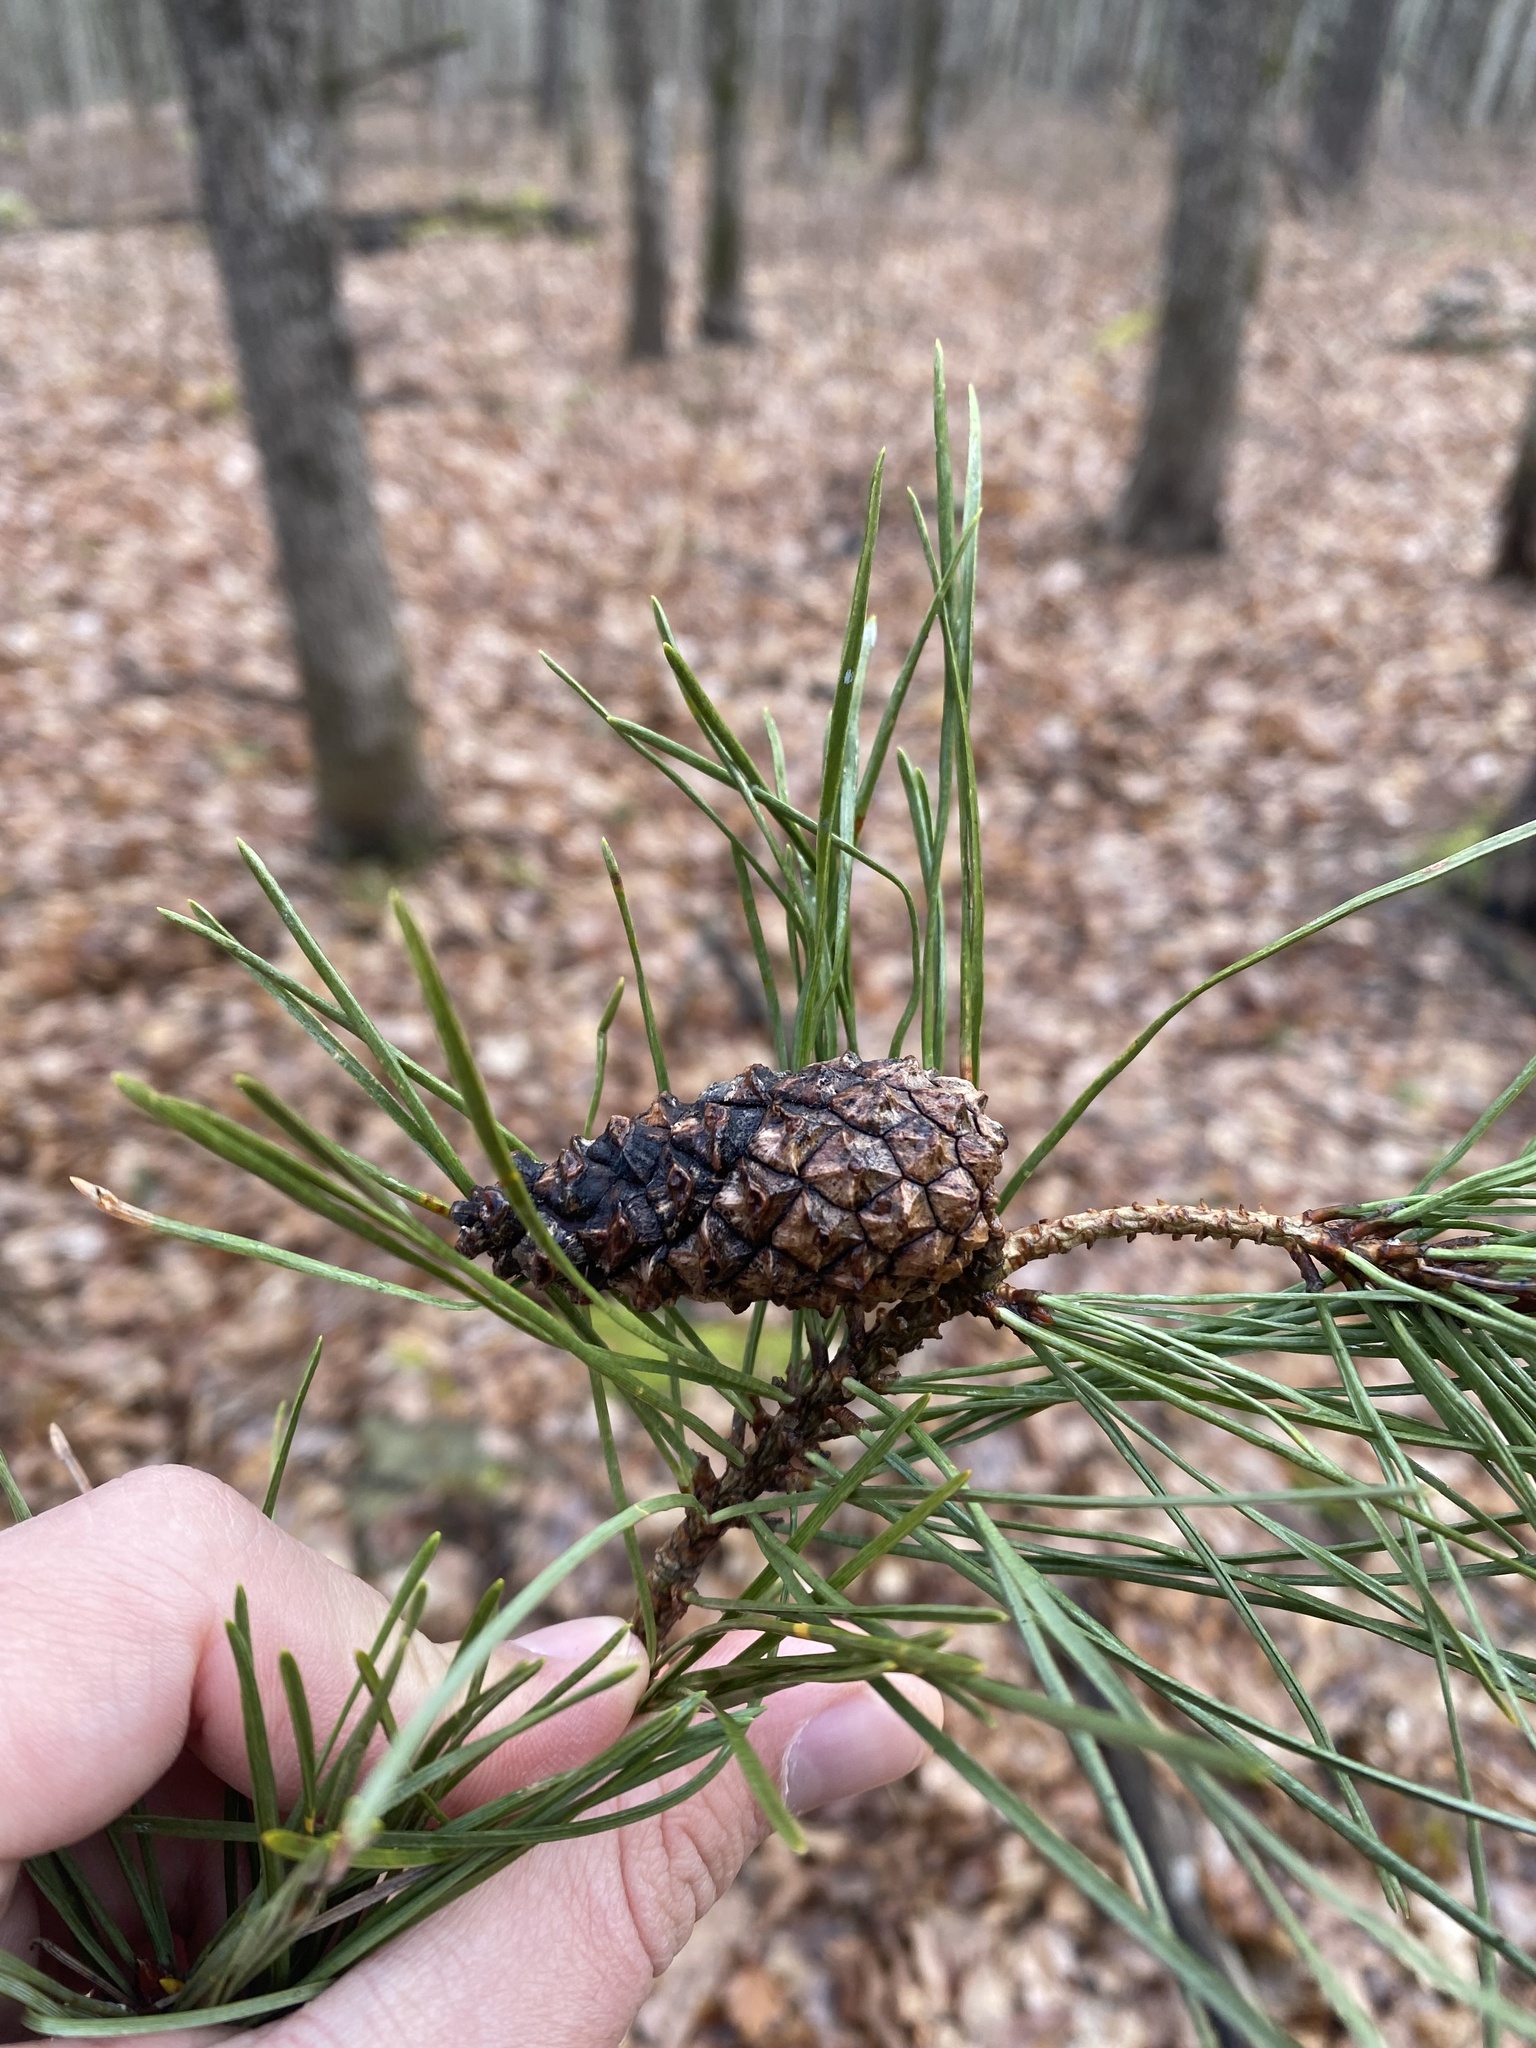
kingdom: Plantae
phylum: Tracheophyta
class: Pinopsida
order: Pinales
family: Pinaceae
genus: Pinus
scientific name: Pinus sylvestris
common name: Scots pine
